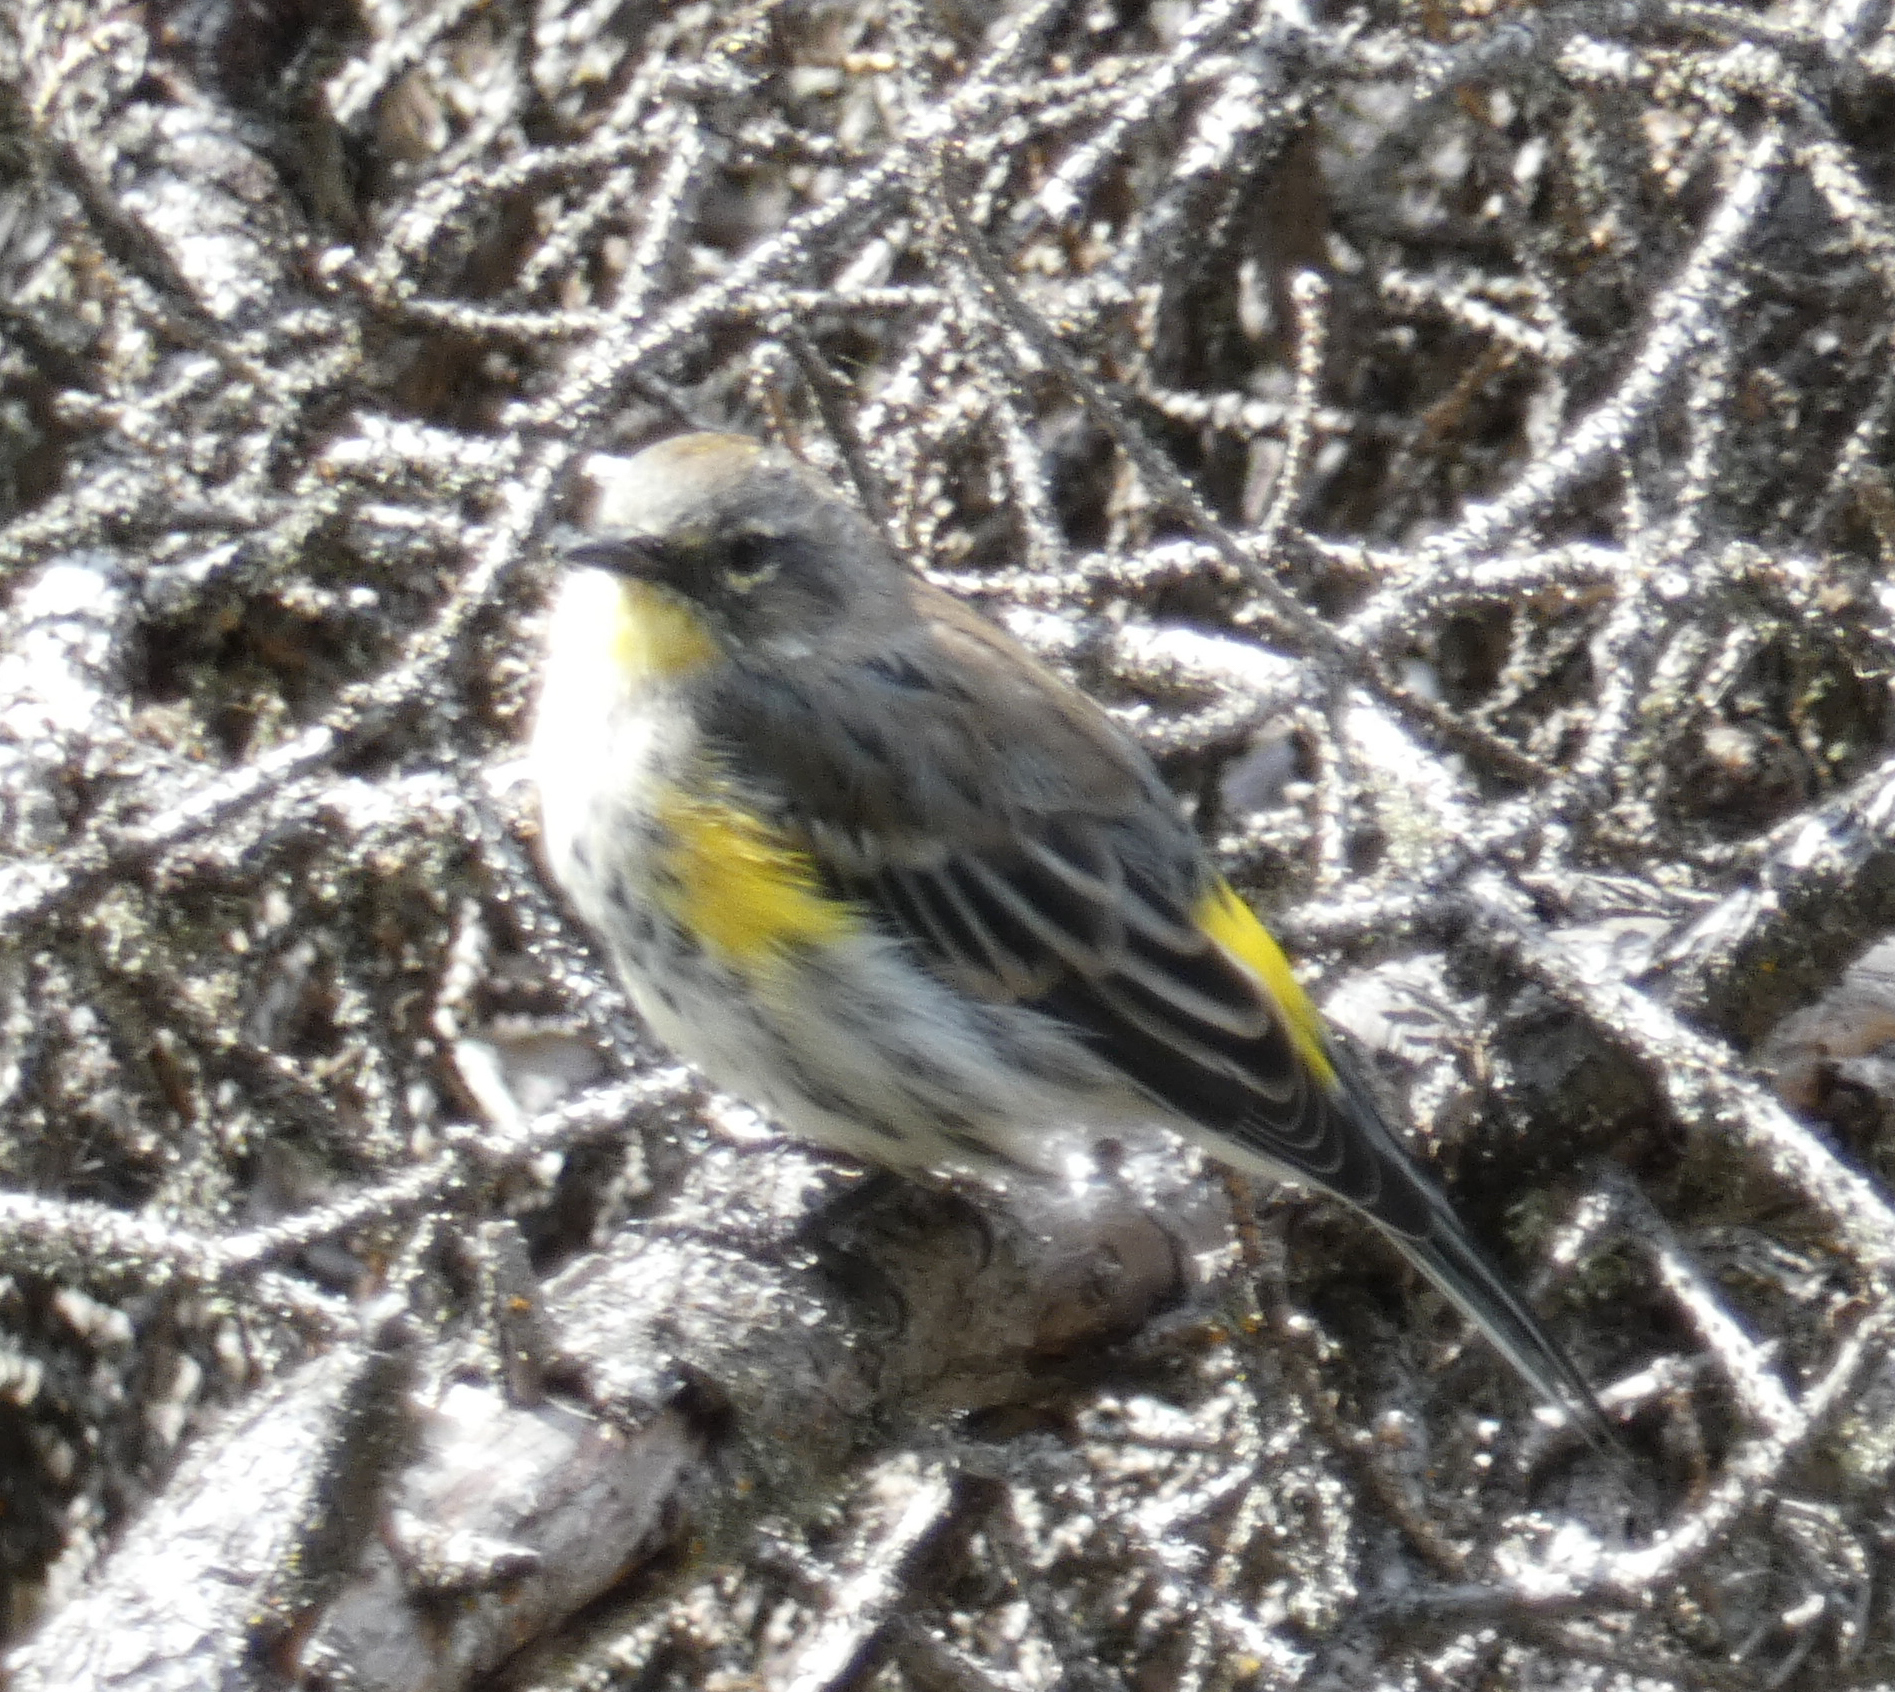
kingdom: Animalia
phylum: Chordata
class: Aves
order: Passeriformes
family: Parulidae
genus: Setophaga
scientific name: Setophaga coronata
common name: Myrtle warbler
